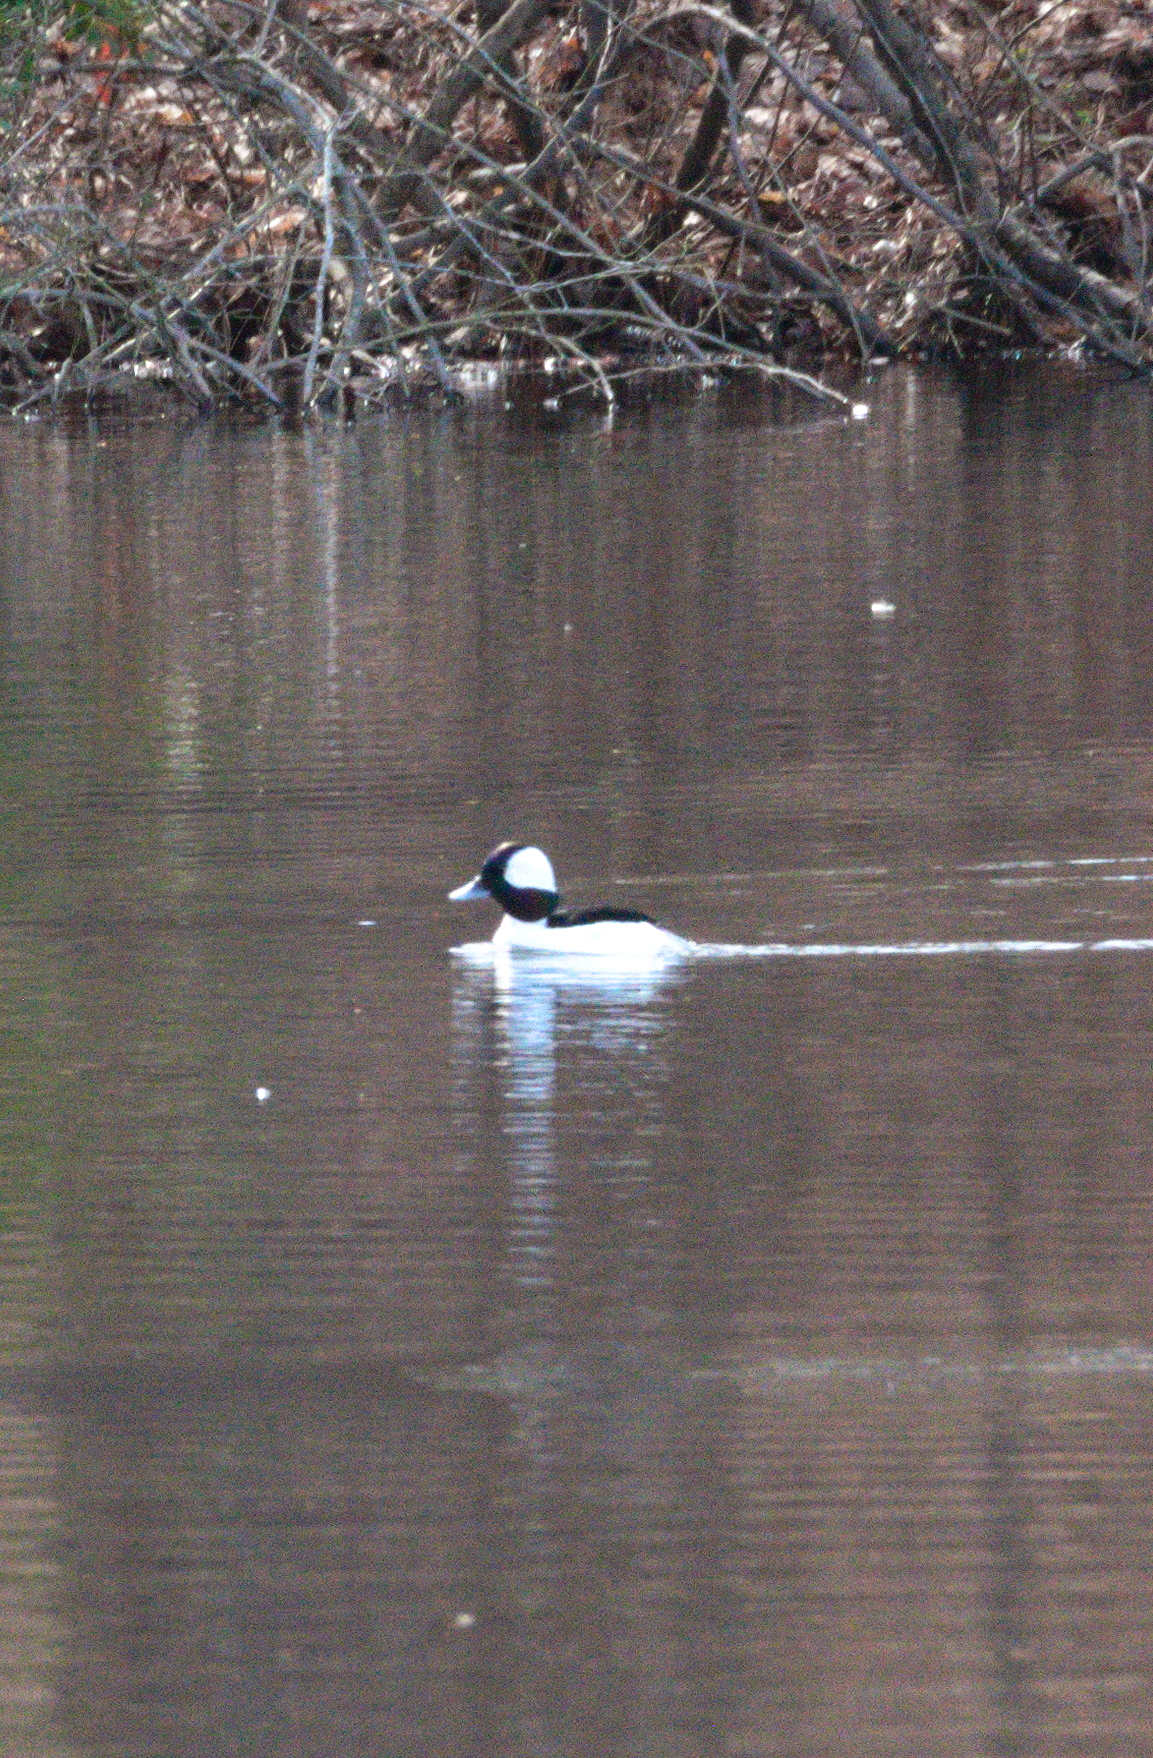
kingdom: Animalia
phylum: Chordata
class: Aves
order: Anseriformes
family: Anatidae
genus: Bucephala
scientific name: Bucephala albeola
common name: Bufflehead
